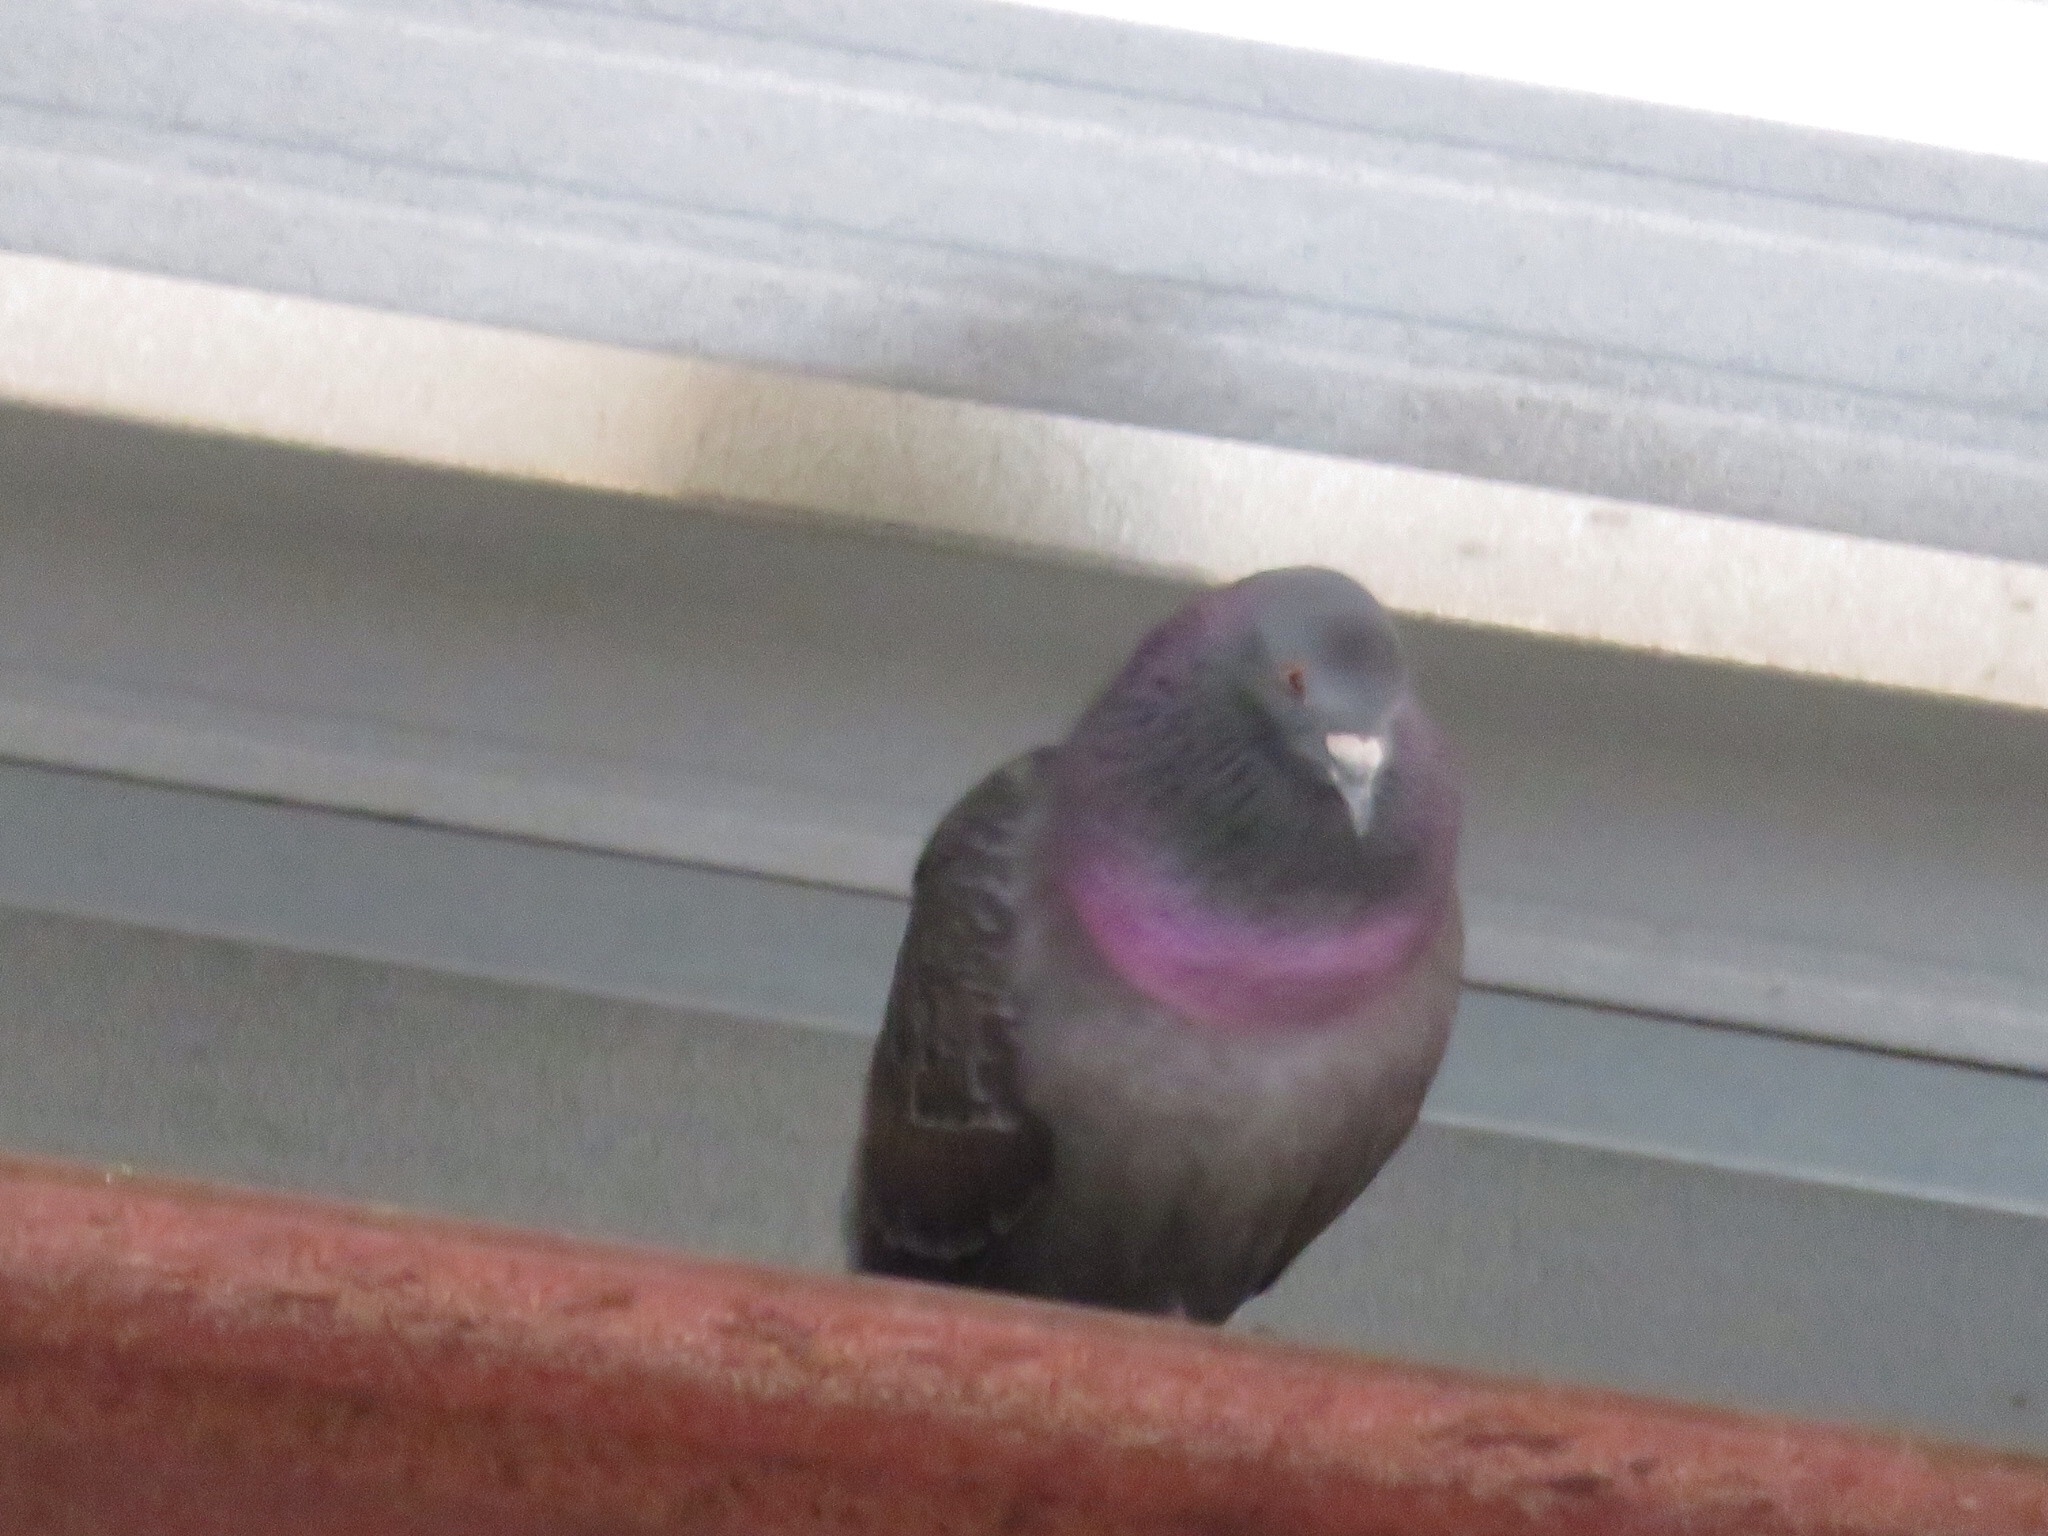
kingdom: Animalia
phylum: Chordata
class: Aves
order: Columbiformes
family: Columbidae
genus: Columba
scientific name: Columba livia
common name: Rock pigeon
